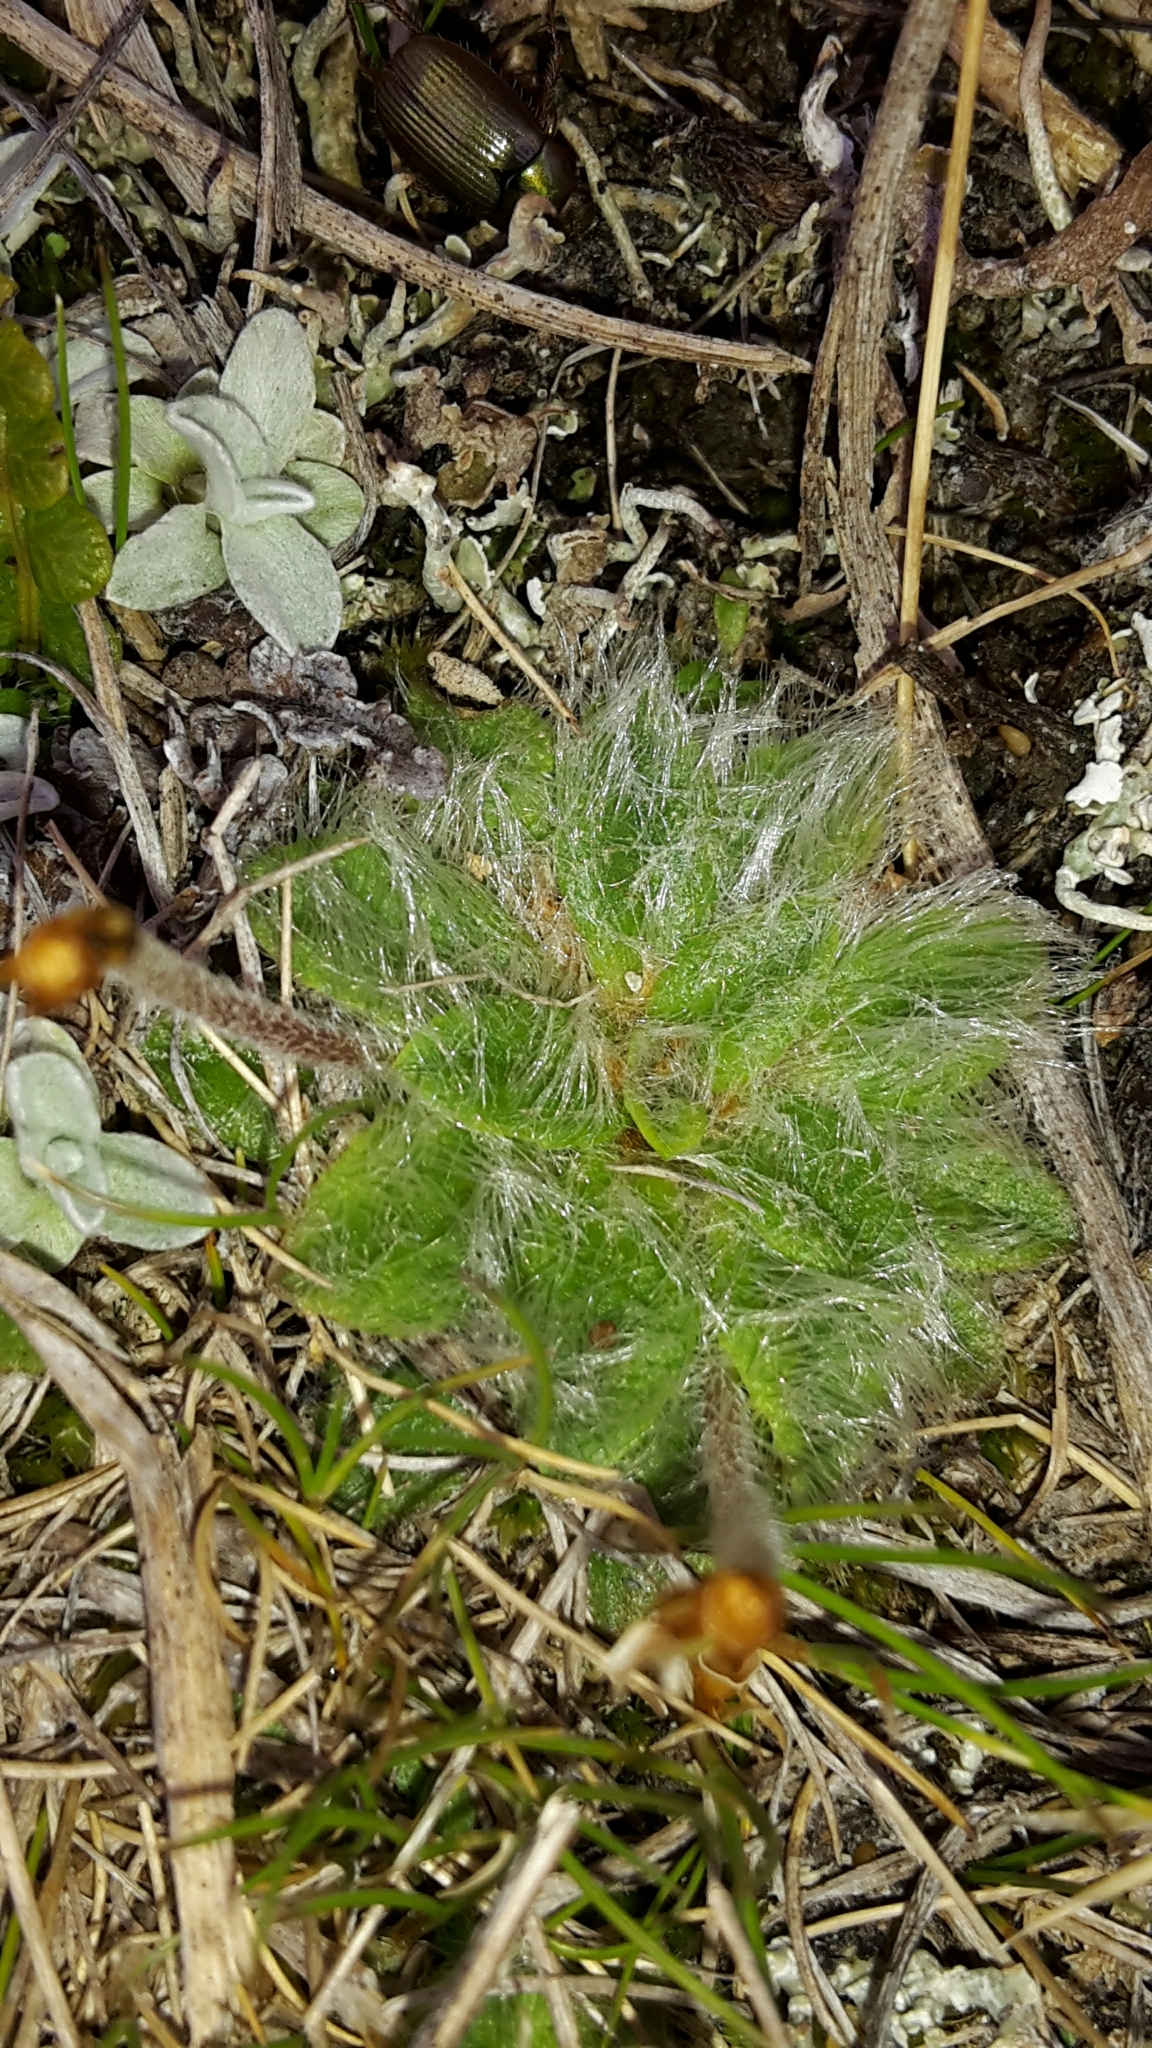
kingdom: Plantae
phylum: Tracheophyta
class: Magnoliopsida
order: Lamiales
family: Plantaginaceae
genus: Plantago
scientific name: Plantago lanigera
